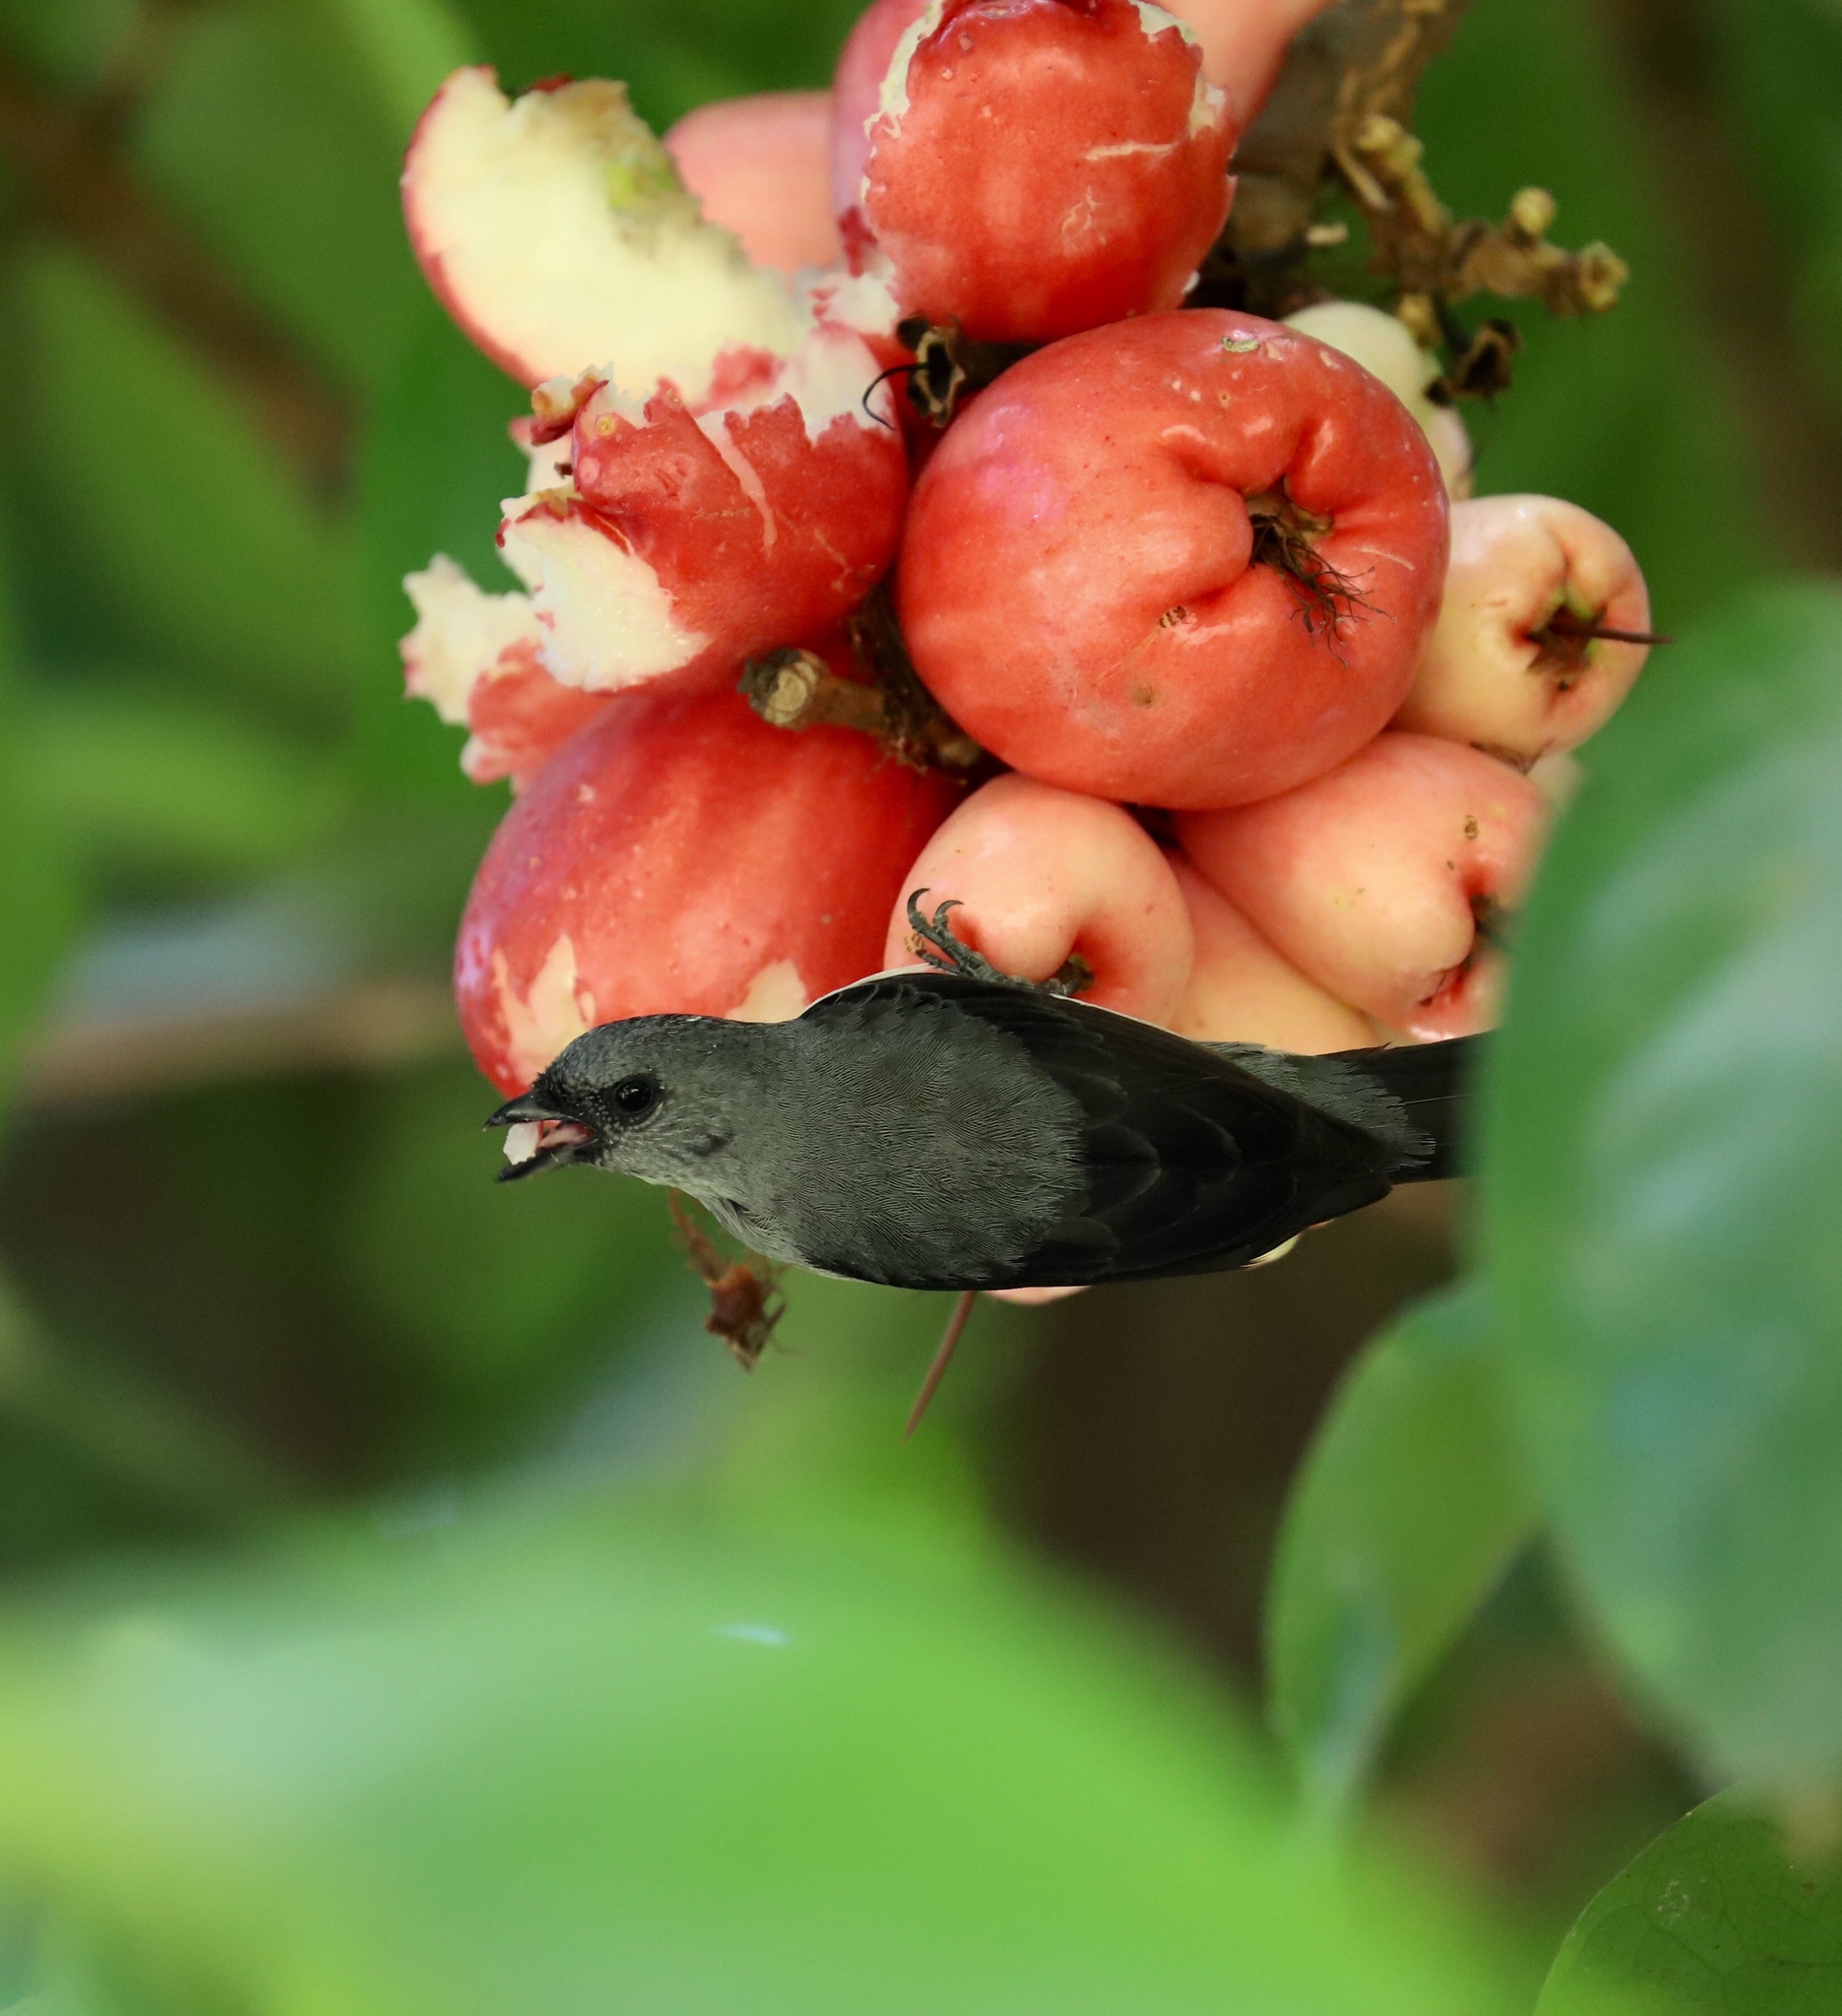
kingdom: Animalia
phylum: Chordata
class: Aves
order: Passeriformes
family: Thraupidae
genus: Tangara
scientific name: Tangara inornata
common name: Plain-colored tanager
